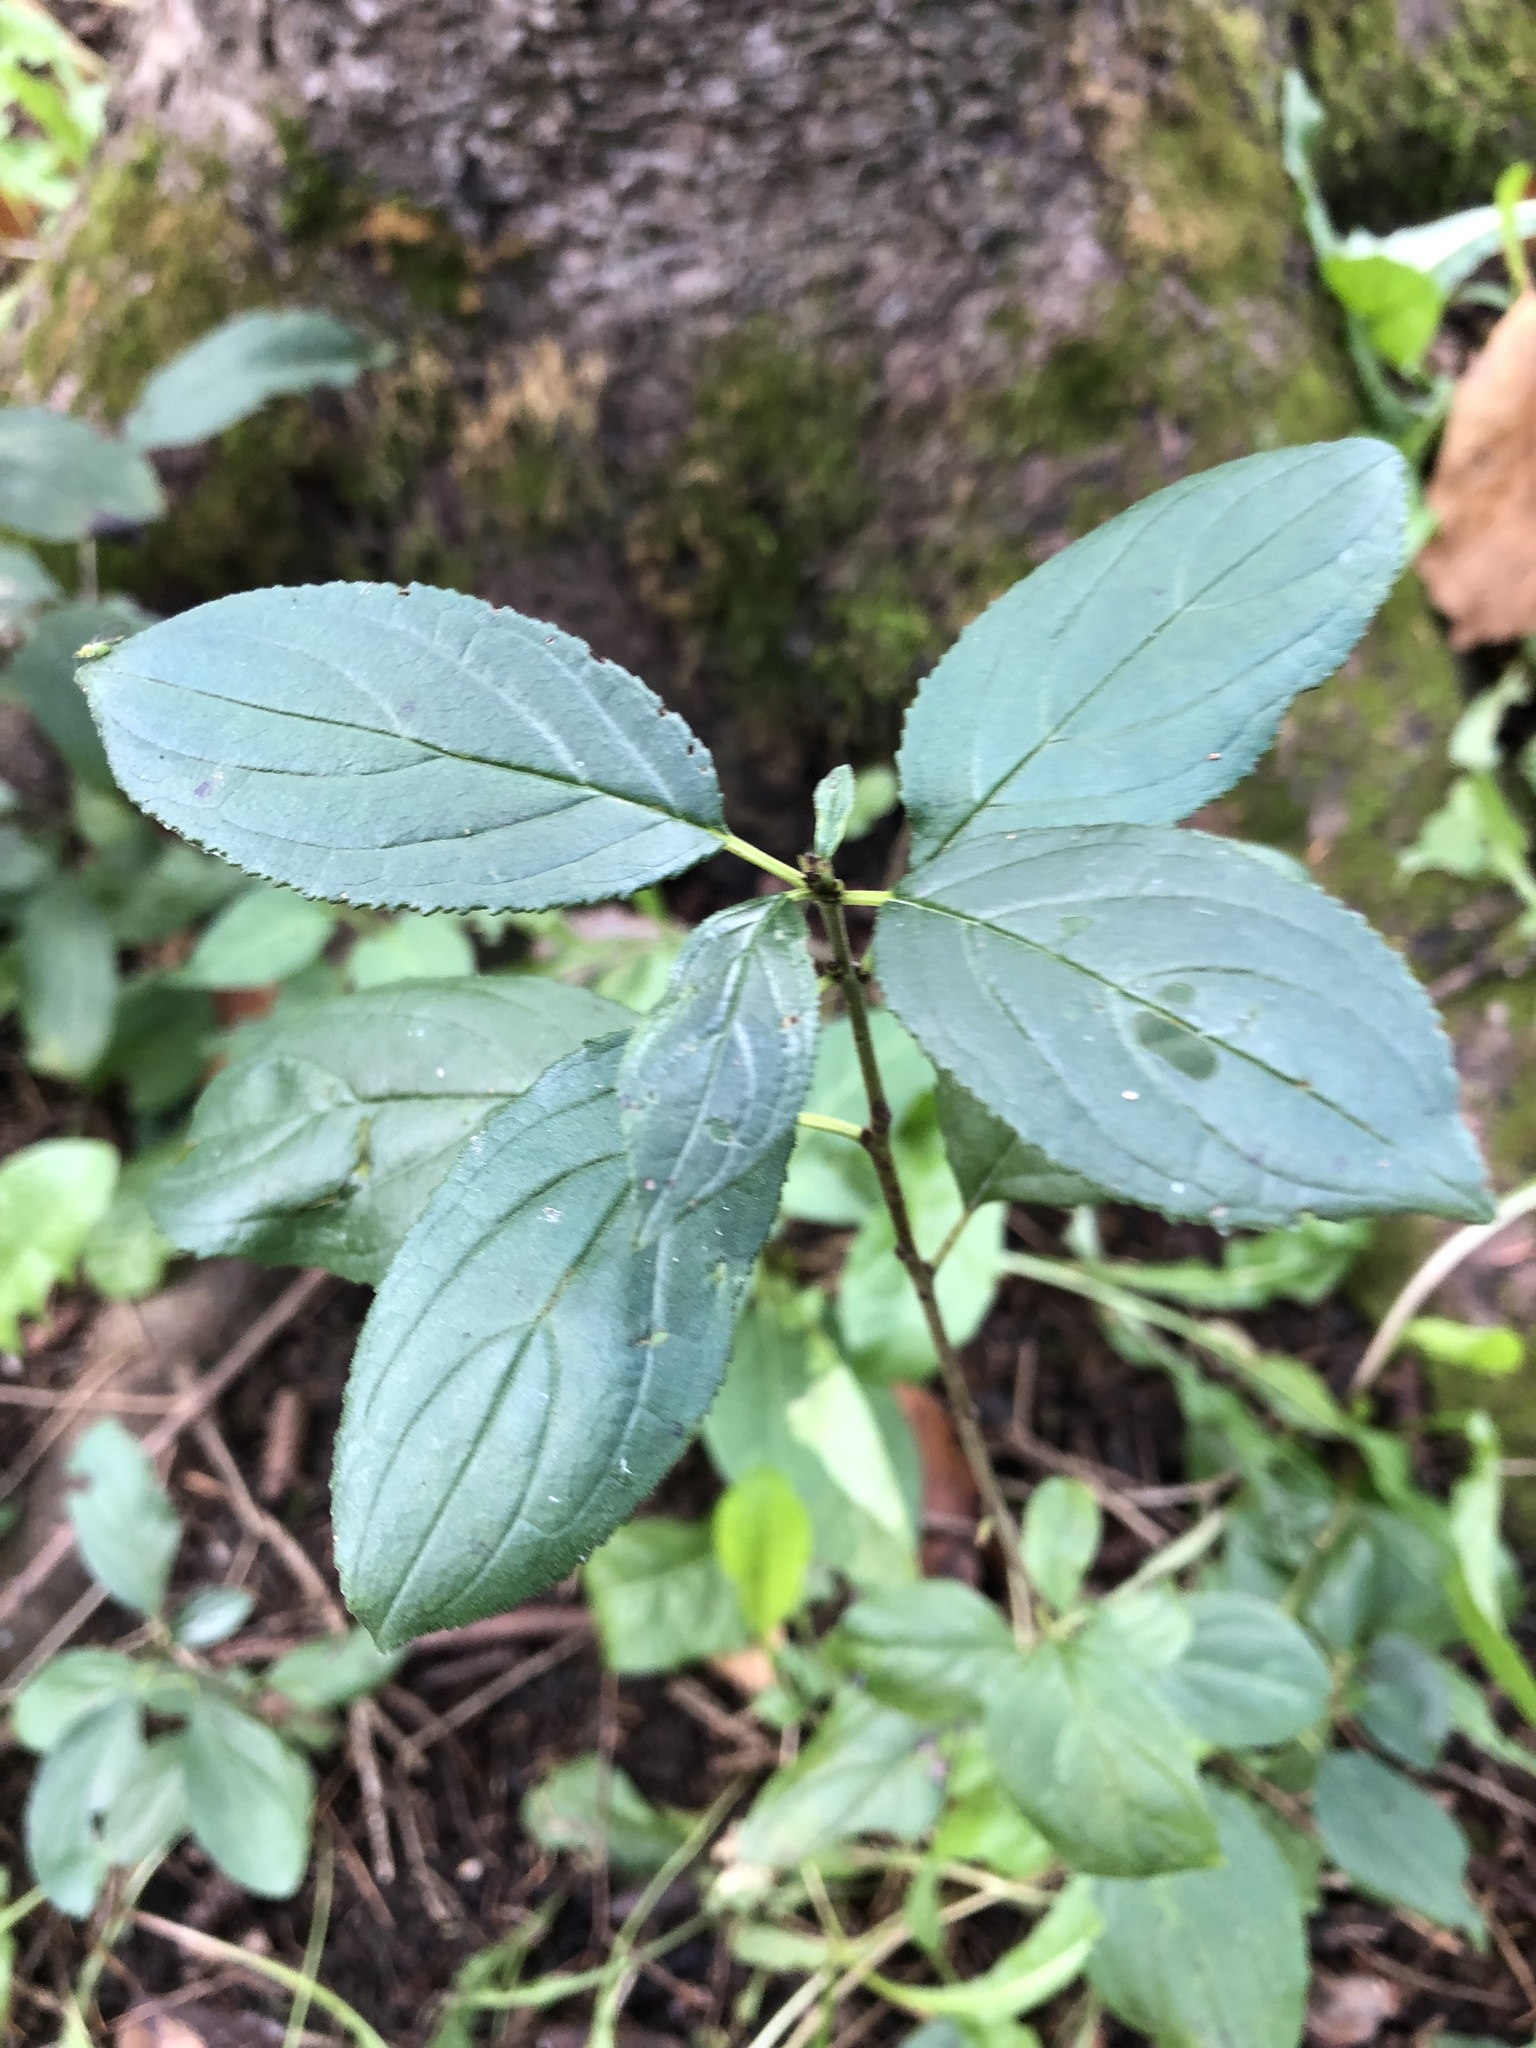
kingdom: Plantae
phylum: Tracheophyta
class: Magnoliopsida
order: Rosales
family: Rhamnaceae
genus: Rhamnus
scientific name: Rhamnus cathartica
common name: Common buckthorn
